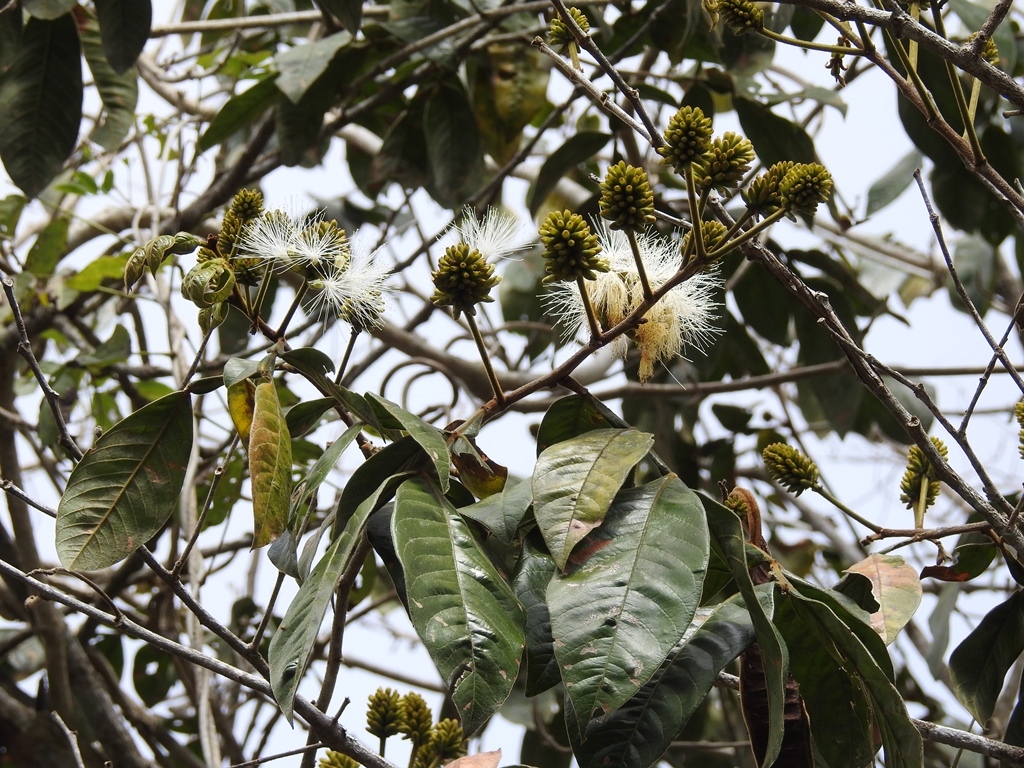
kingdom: Plantae
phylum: Tracheophyta
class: Magnoliopsida
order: Fabales
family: Fabaceae
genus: Inga
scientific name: Inga chiapensis
